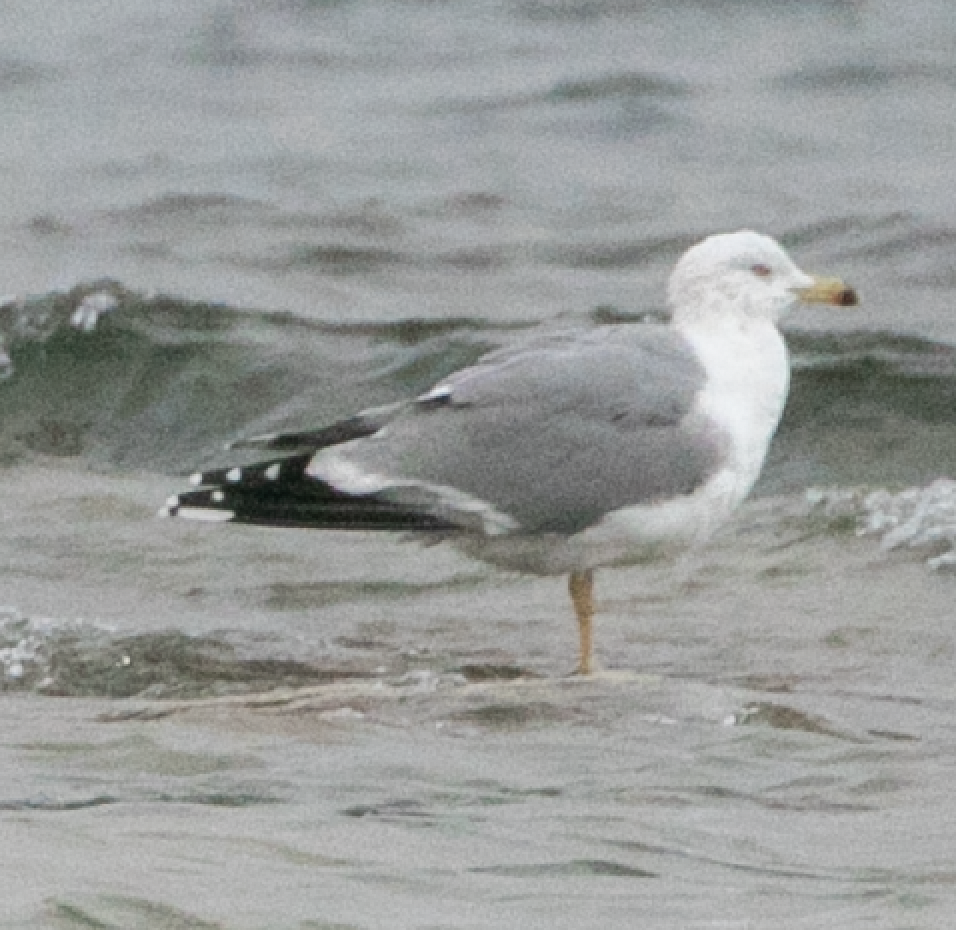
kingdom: Animalia
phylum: Chordata
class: Aves
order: Charadriiformes
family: Laridae
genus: Larus
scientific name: Larus michahellis
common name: Yellow-legged gull
